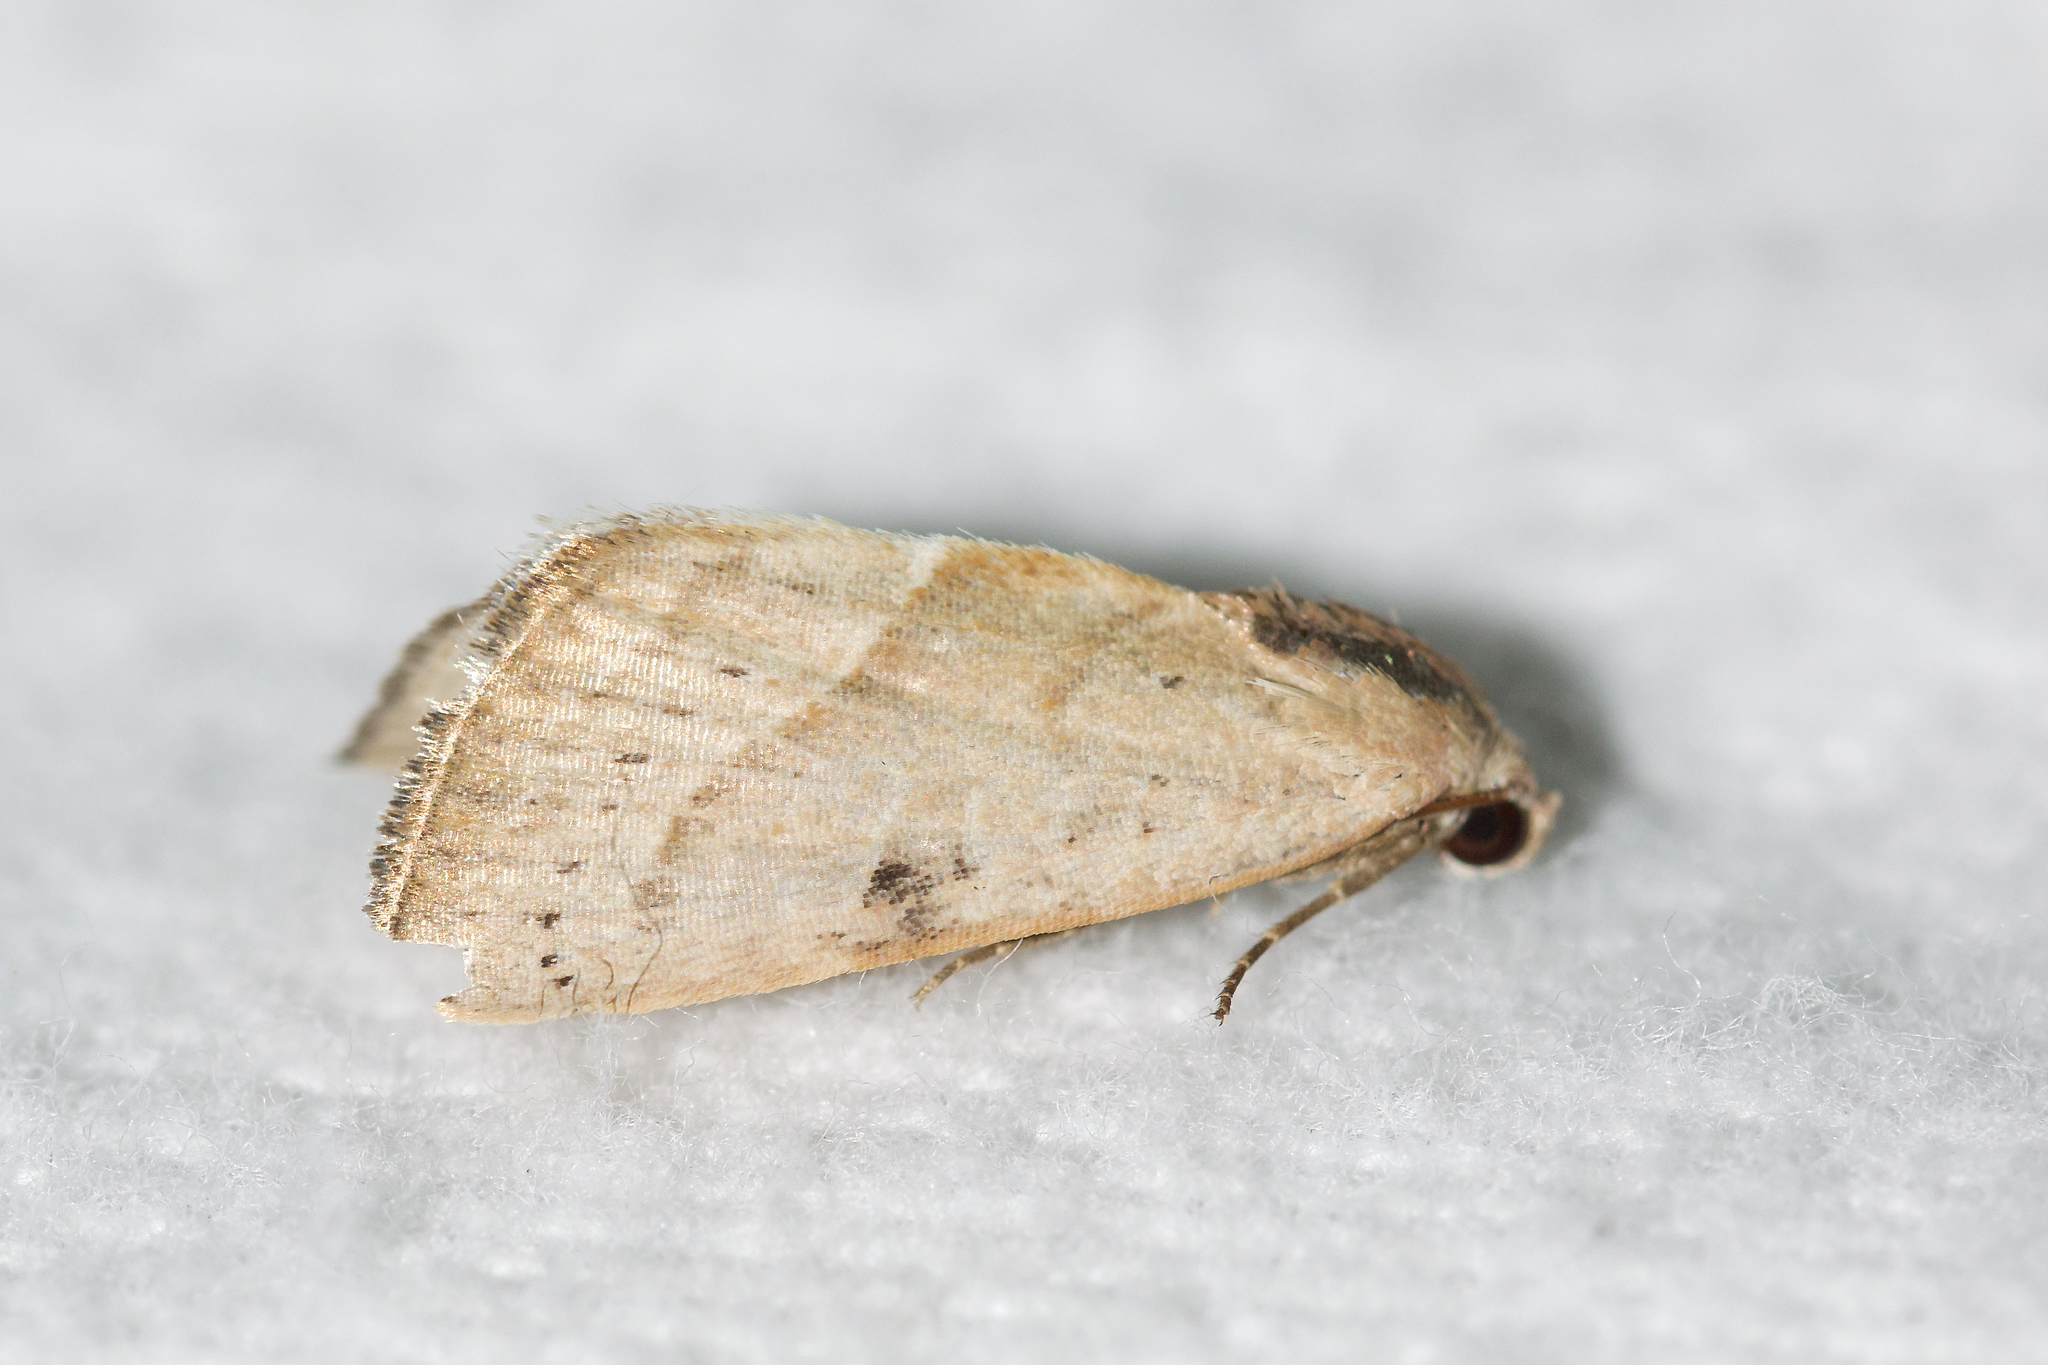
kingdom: Animalia
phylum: Arthropoda
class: Insecta
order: Lepidoptera
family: Noctuidae
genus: Galgula
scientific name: Galgula partita
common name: Wedgeling
